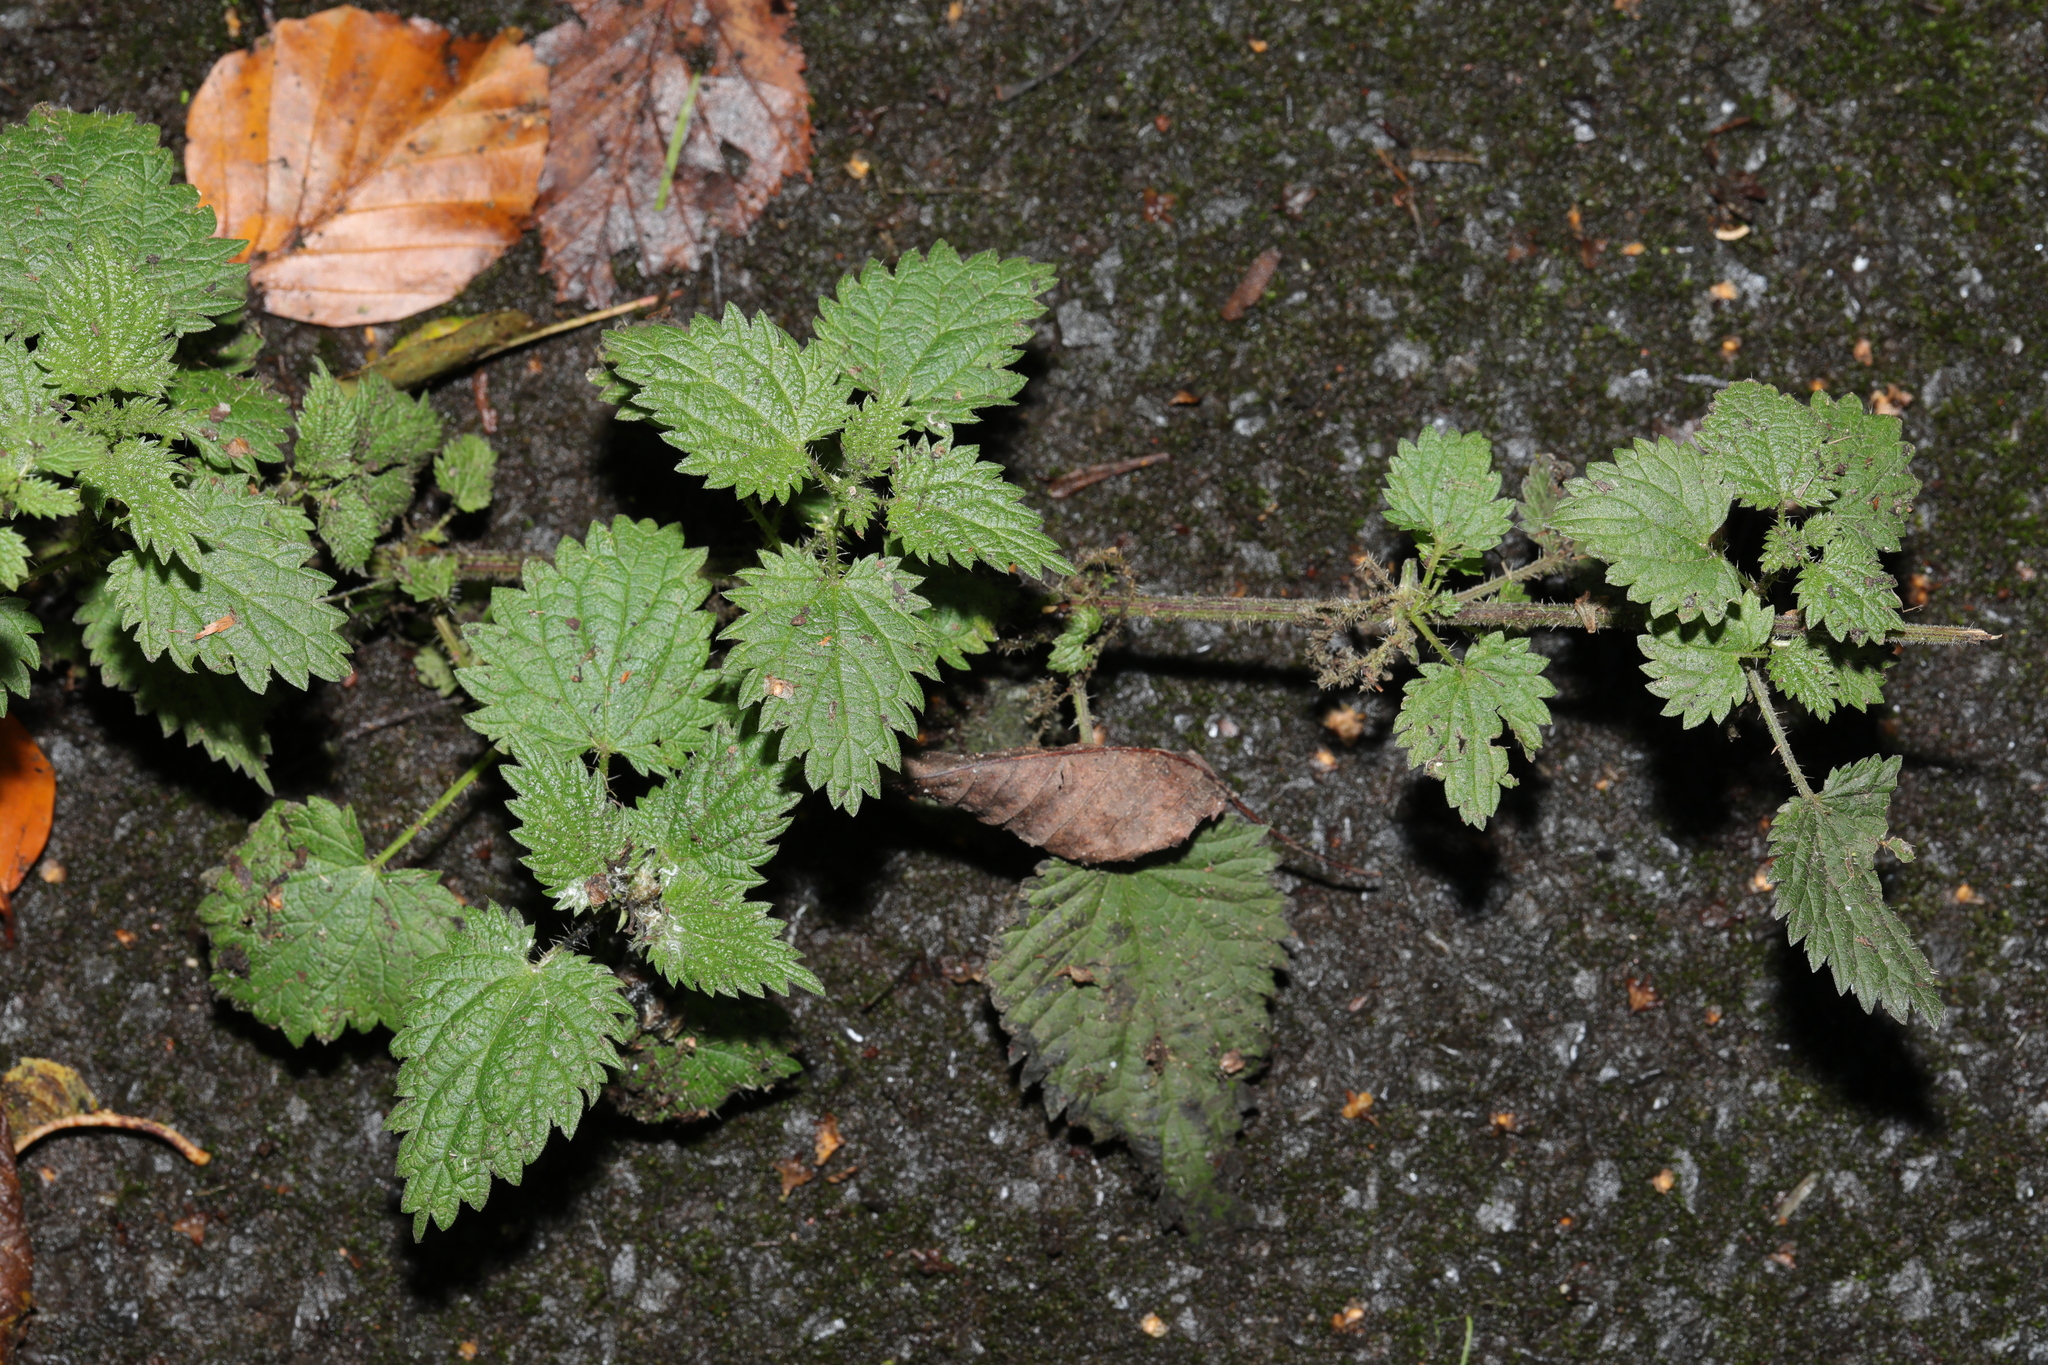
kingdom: Plantae
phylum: Tracheophyta
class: Magnoliopsida
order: Rosales
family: Urticaceae
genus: Urtica
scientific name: Urtica dioica
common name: Common nettle
